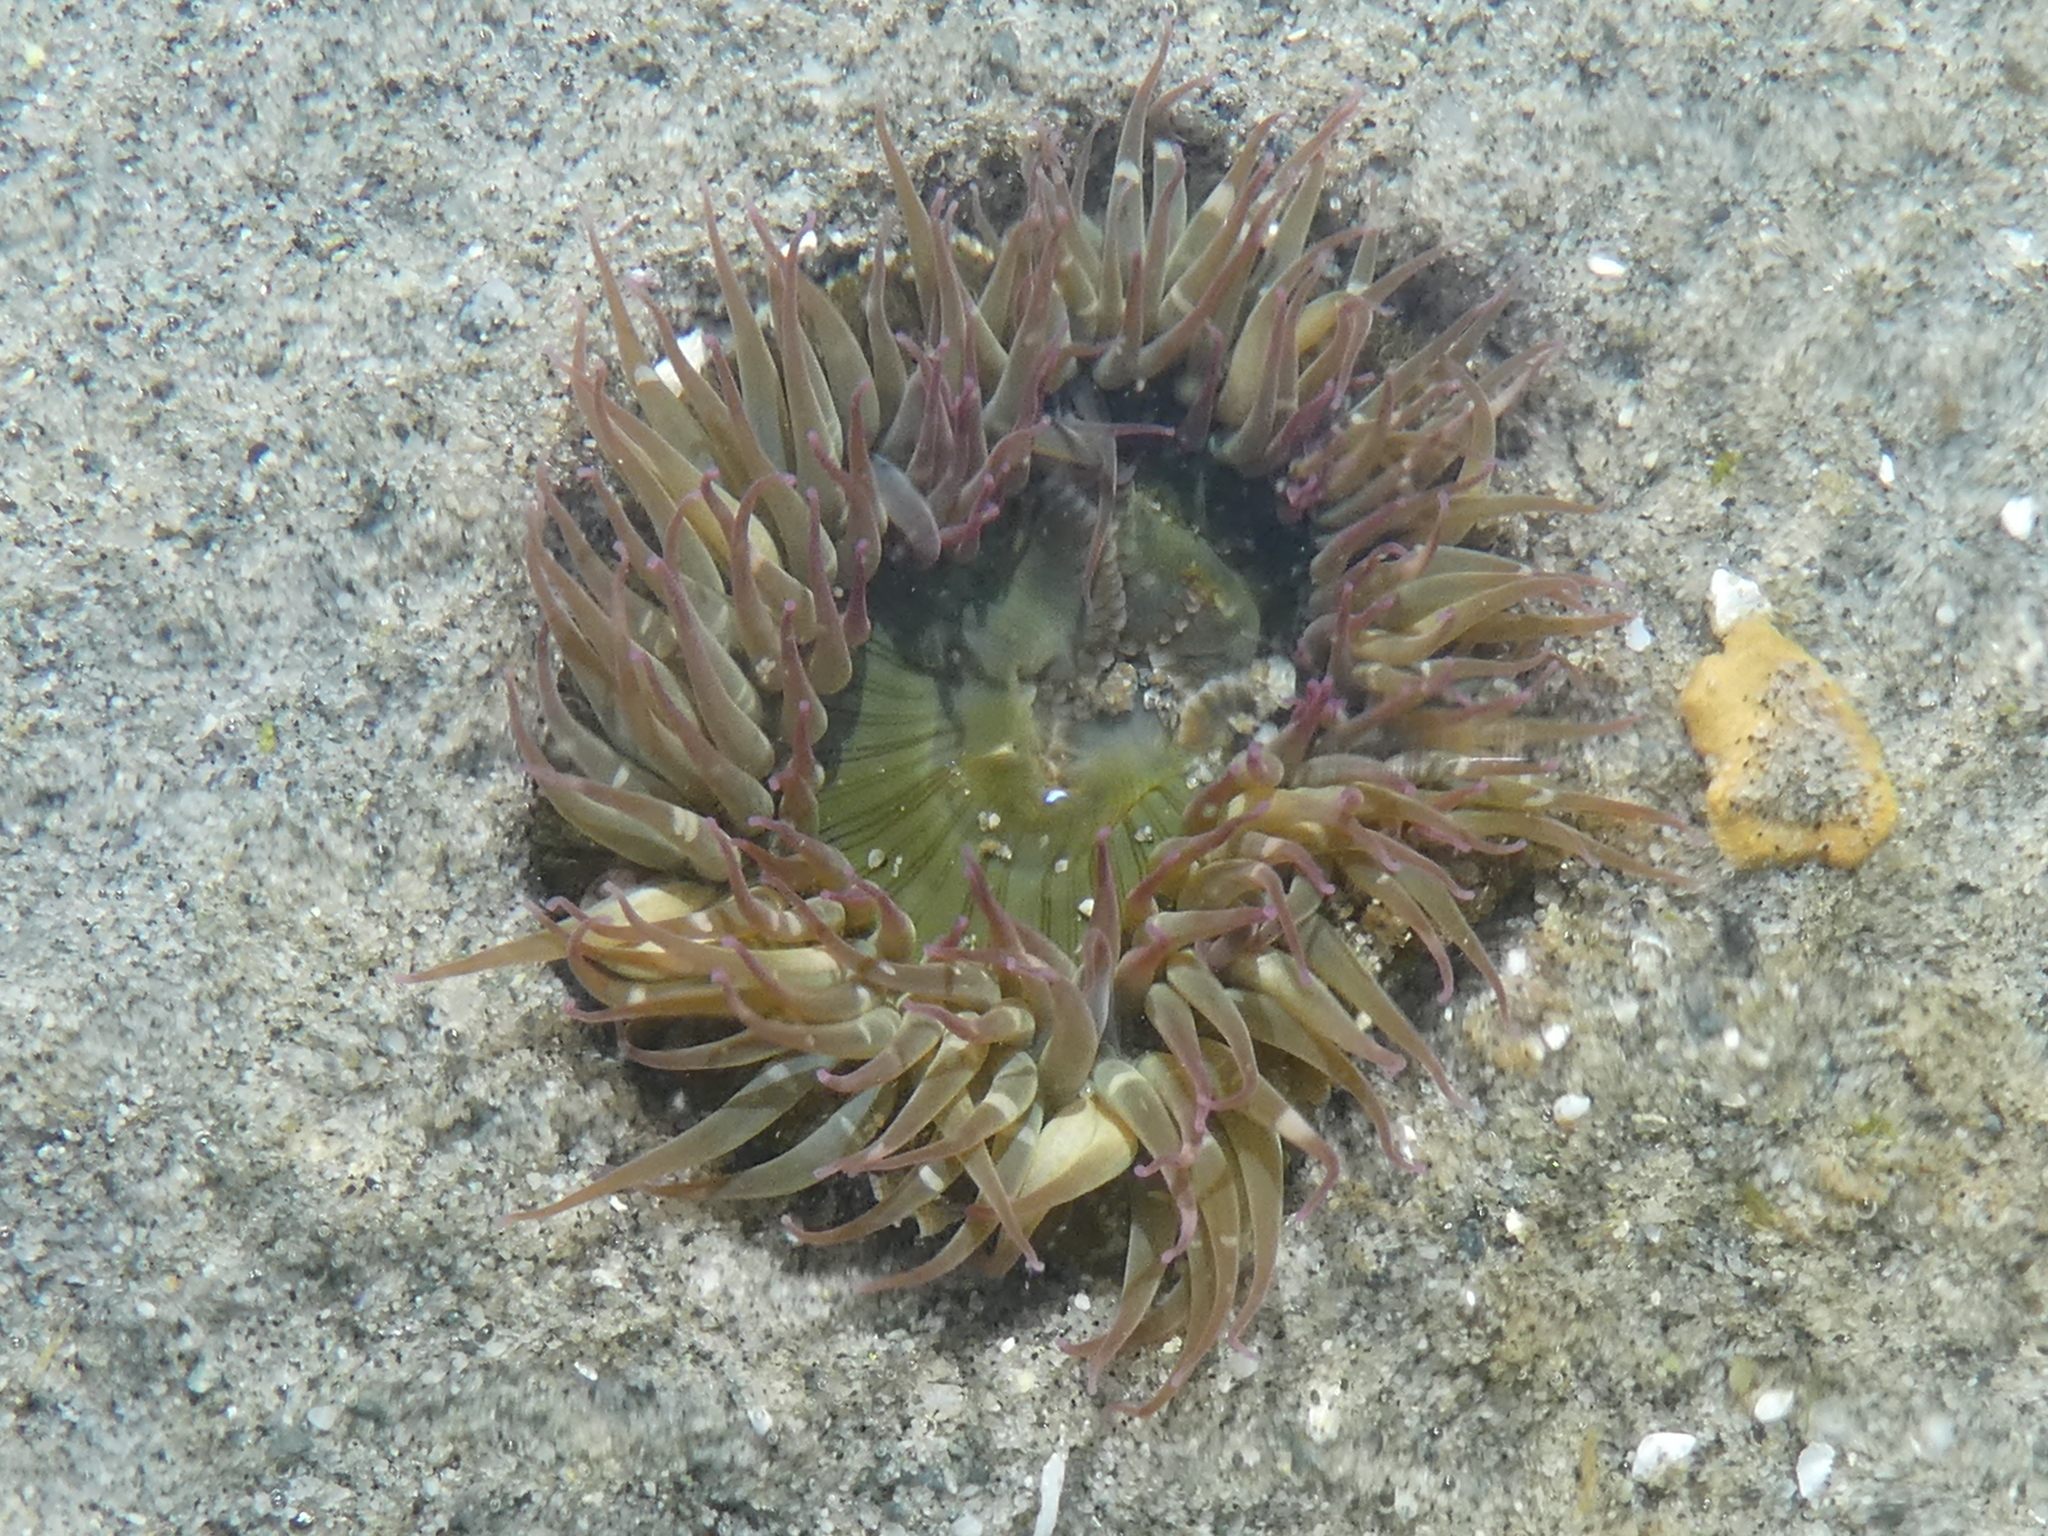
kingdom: Animalia
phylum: Cnidaria
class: Anthozoa
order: Actiniaria
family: Actiniidae
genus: Anthopleura
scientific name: Anthopleura elegantissima
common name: Clonal anemone
